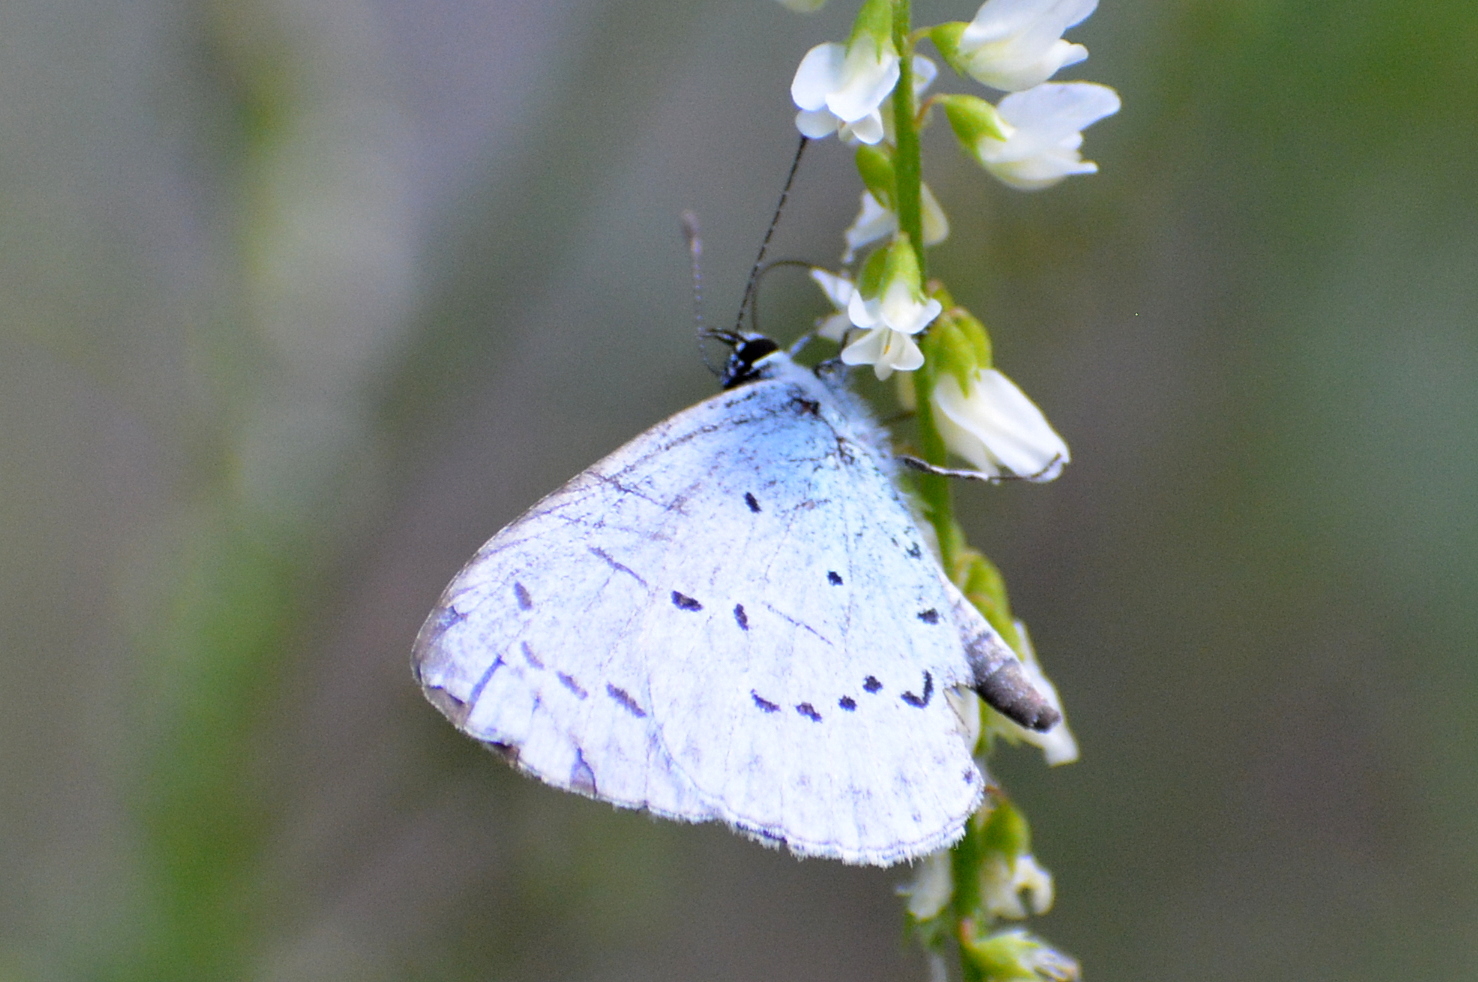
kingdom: Animalia
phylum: Arthropoda
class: Insecta
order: Lepidoptera
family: Lycaenidae
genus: Celastrina
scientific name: Celastrina argiolus
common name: Holly blue
